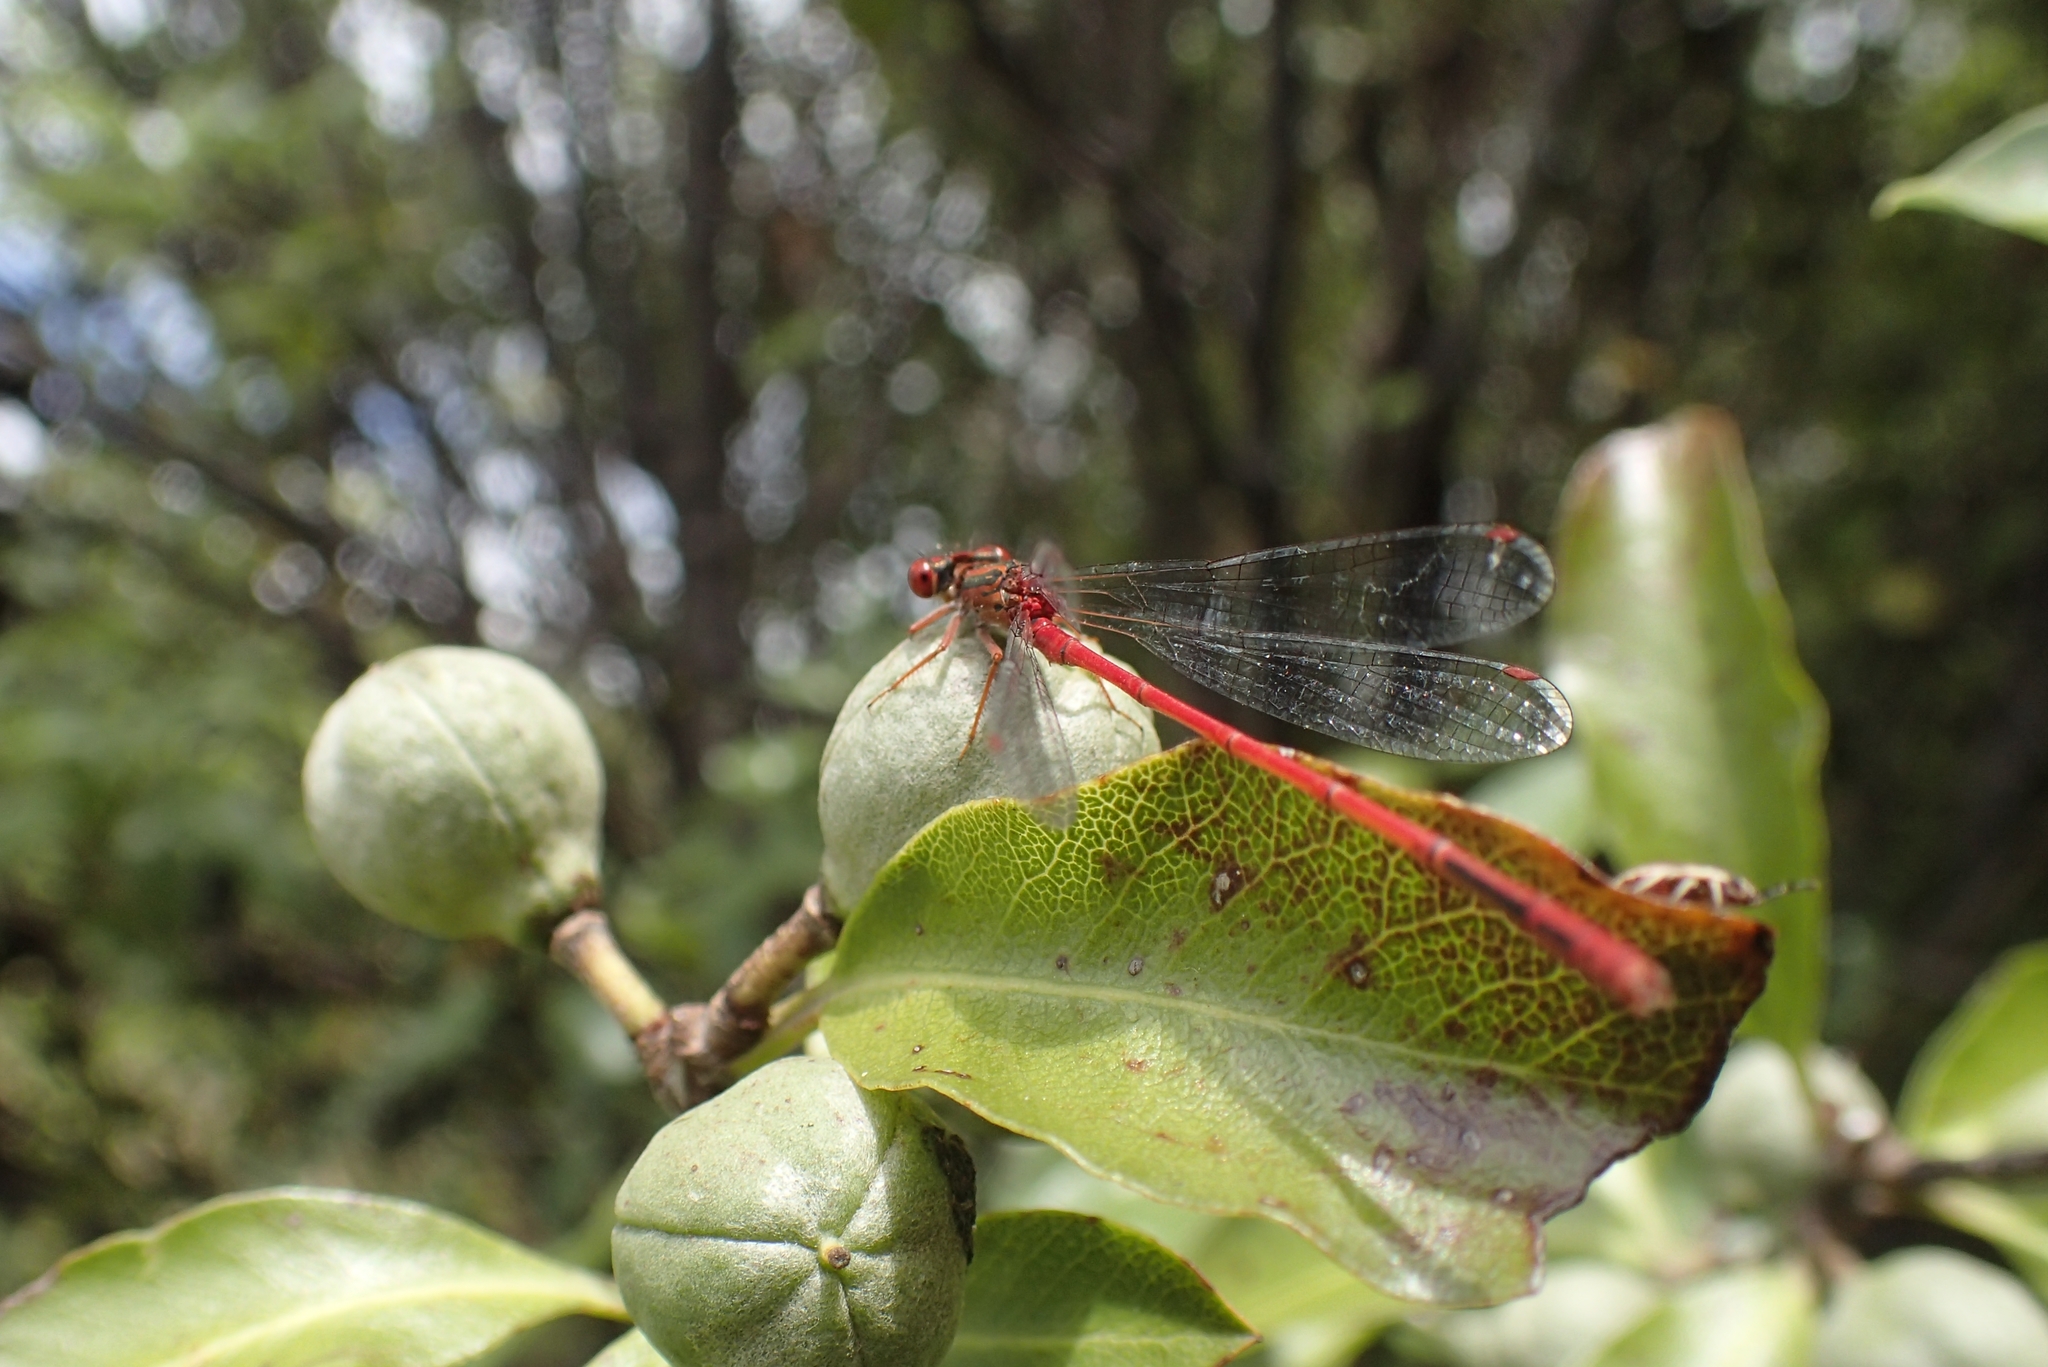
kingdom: Animalia
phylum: Arthropoda
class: Insecta
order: Odonata
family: Coenagrionidae
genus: Xanthocnemis
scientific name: Xanthocnemis zealandica
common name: Common redcoat damselfly
